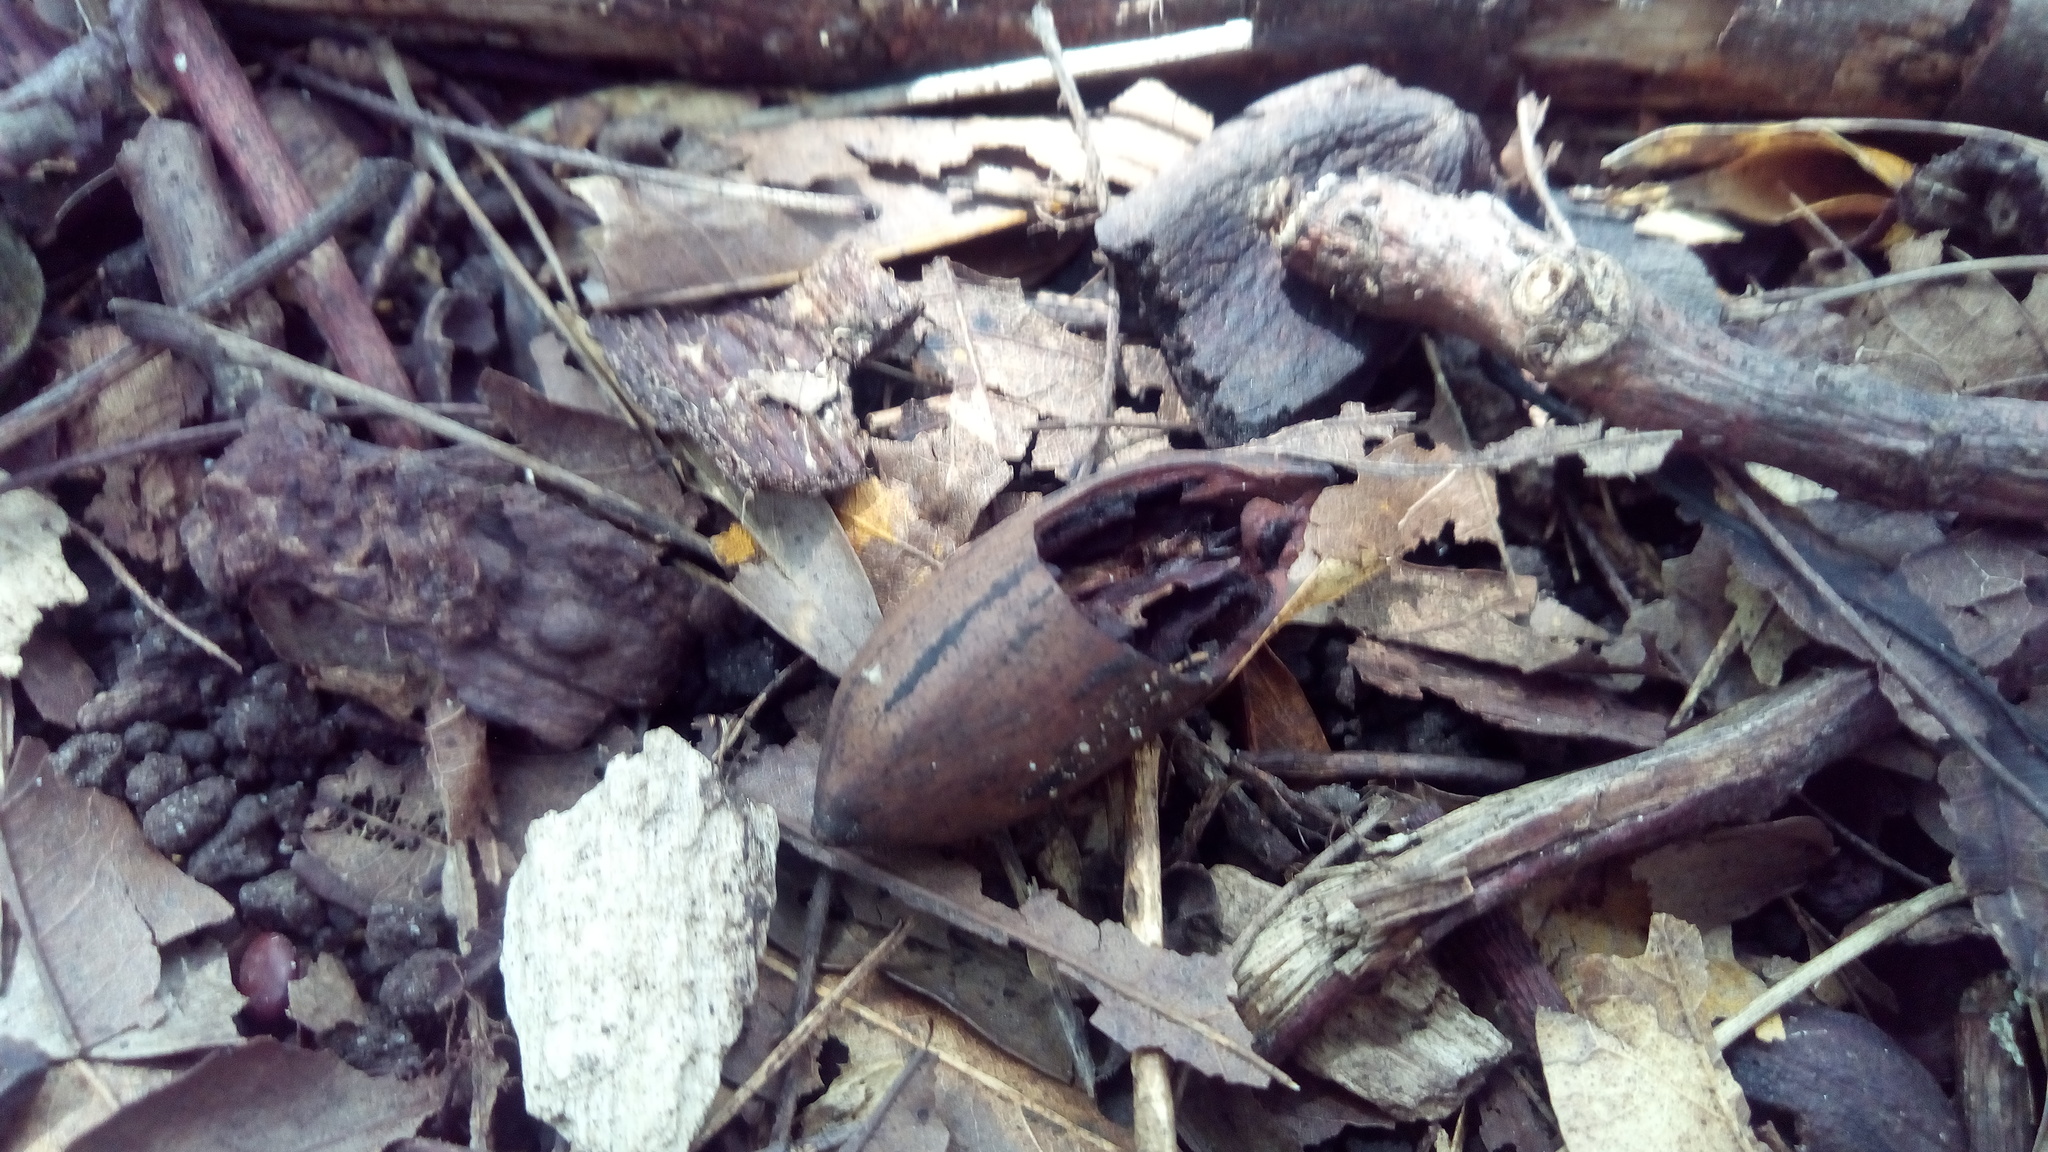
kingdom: Plantae
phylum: Tracheophyta
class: Magnoliopsida
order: Fagales
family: Juglandaceae
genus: Carya
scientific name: Carya illinoinensis
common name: Pecan
